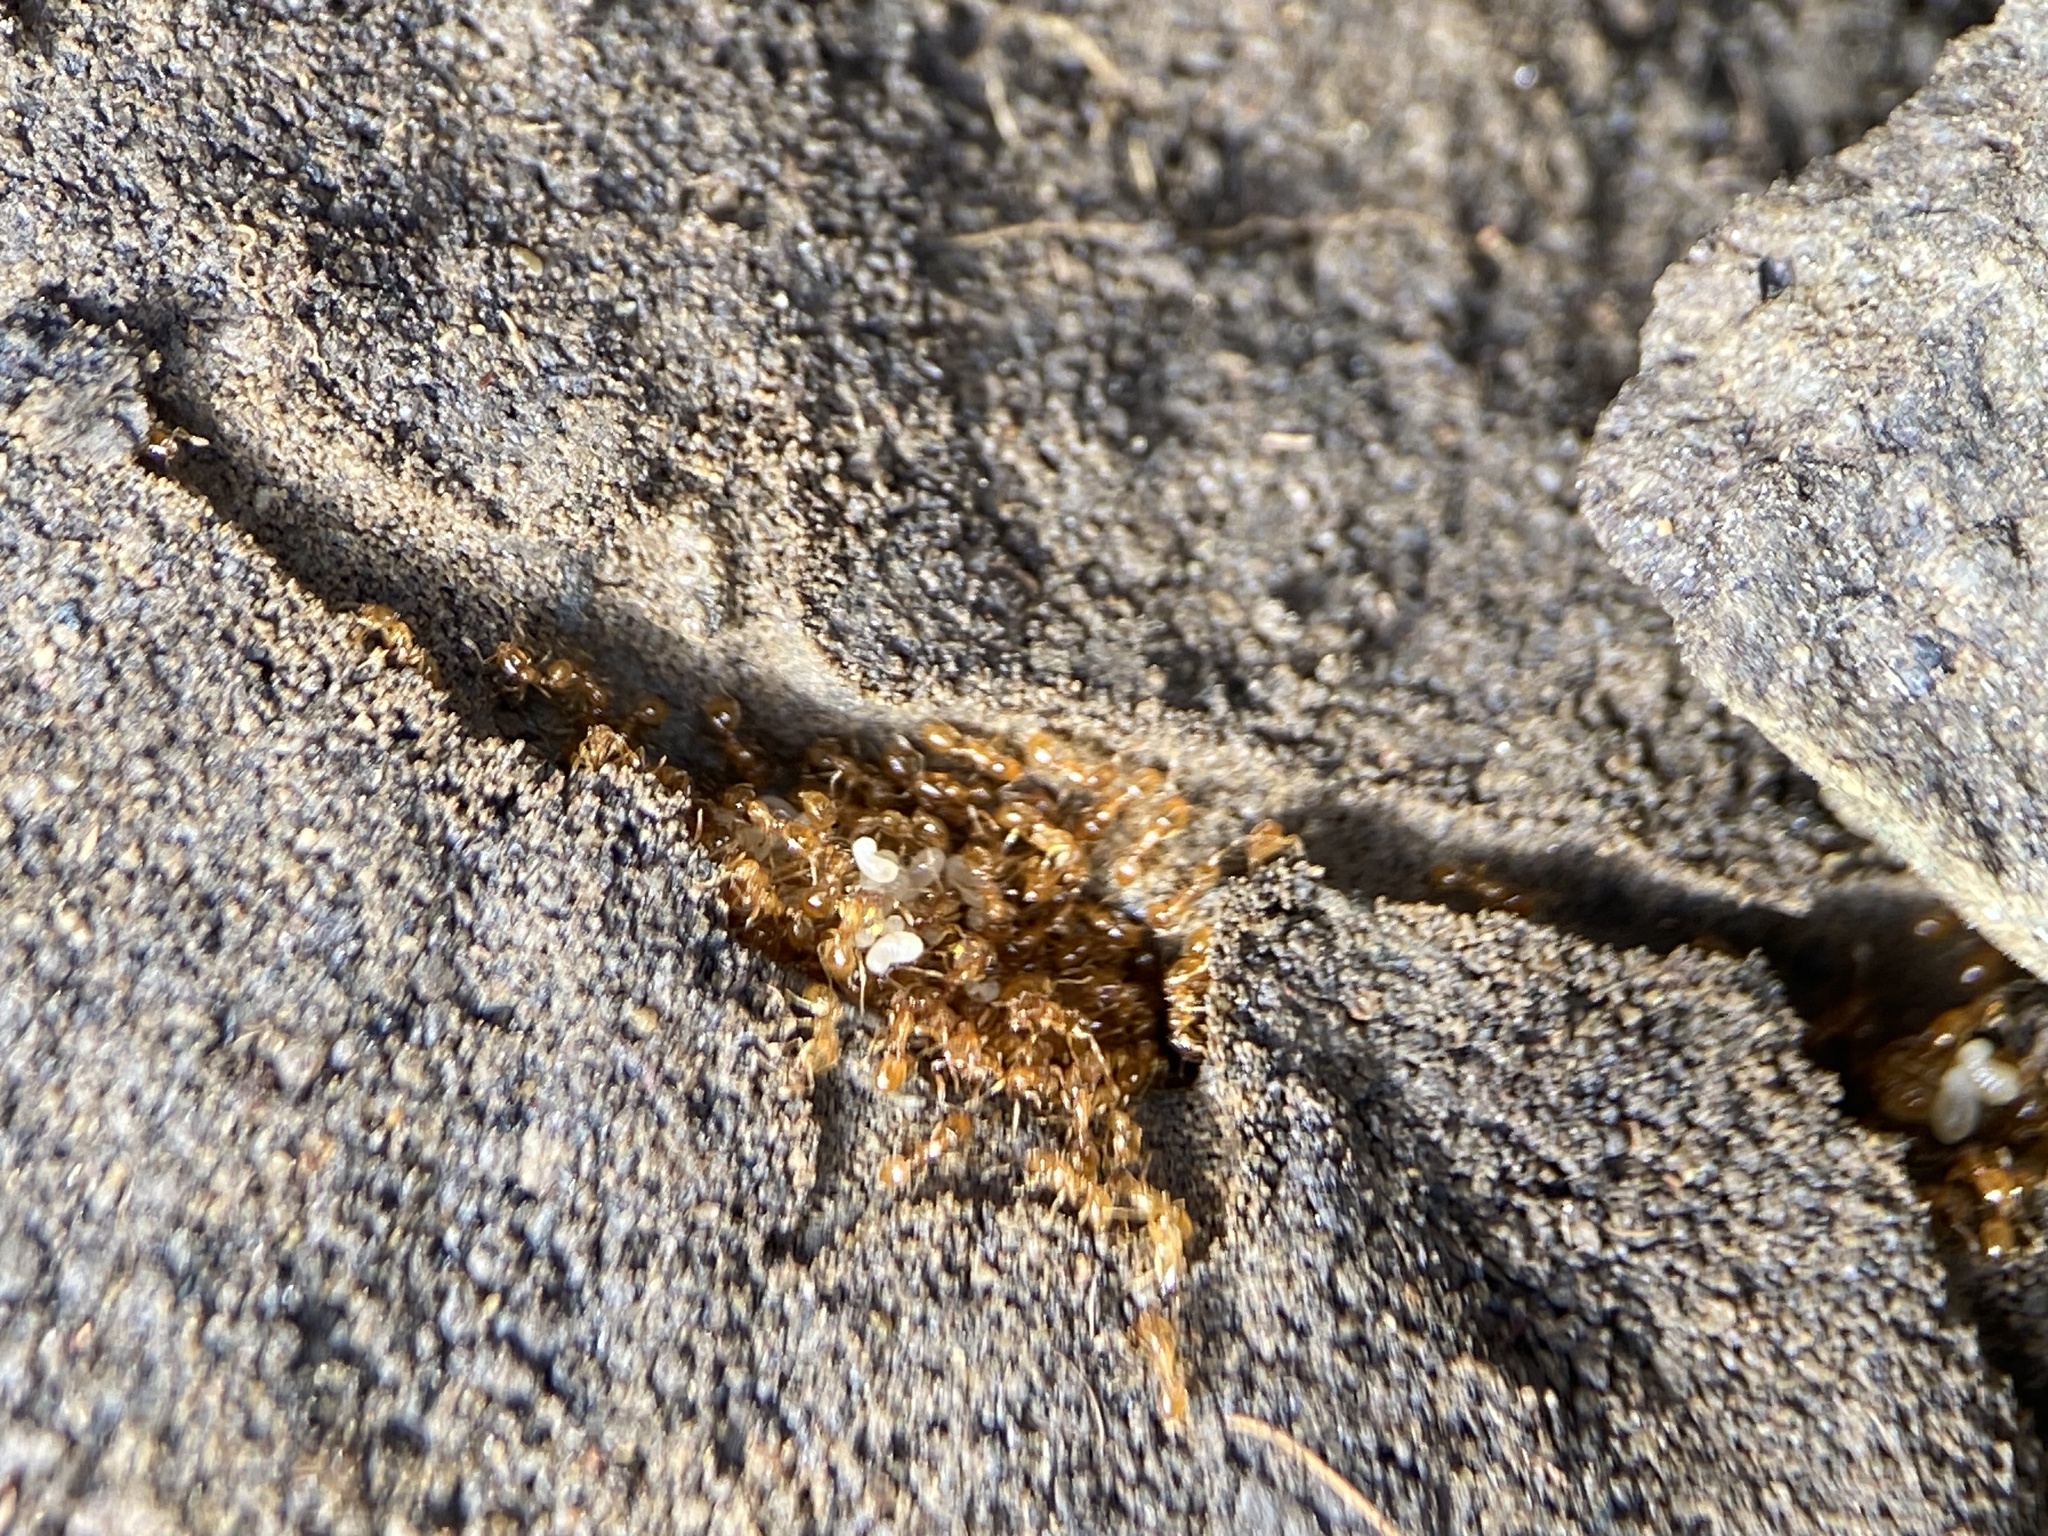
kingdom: Animalia
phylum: Arthropoda
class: Insecta
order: Hymenoptera
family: Formicidae
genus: Solenopsis
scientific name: Solenopsis molesta
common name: Thief ant
